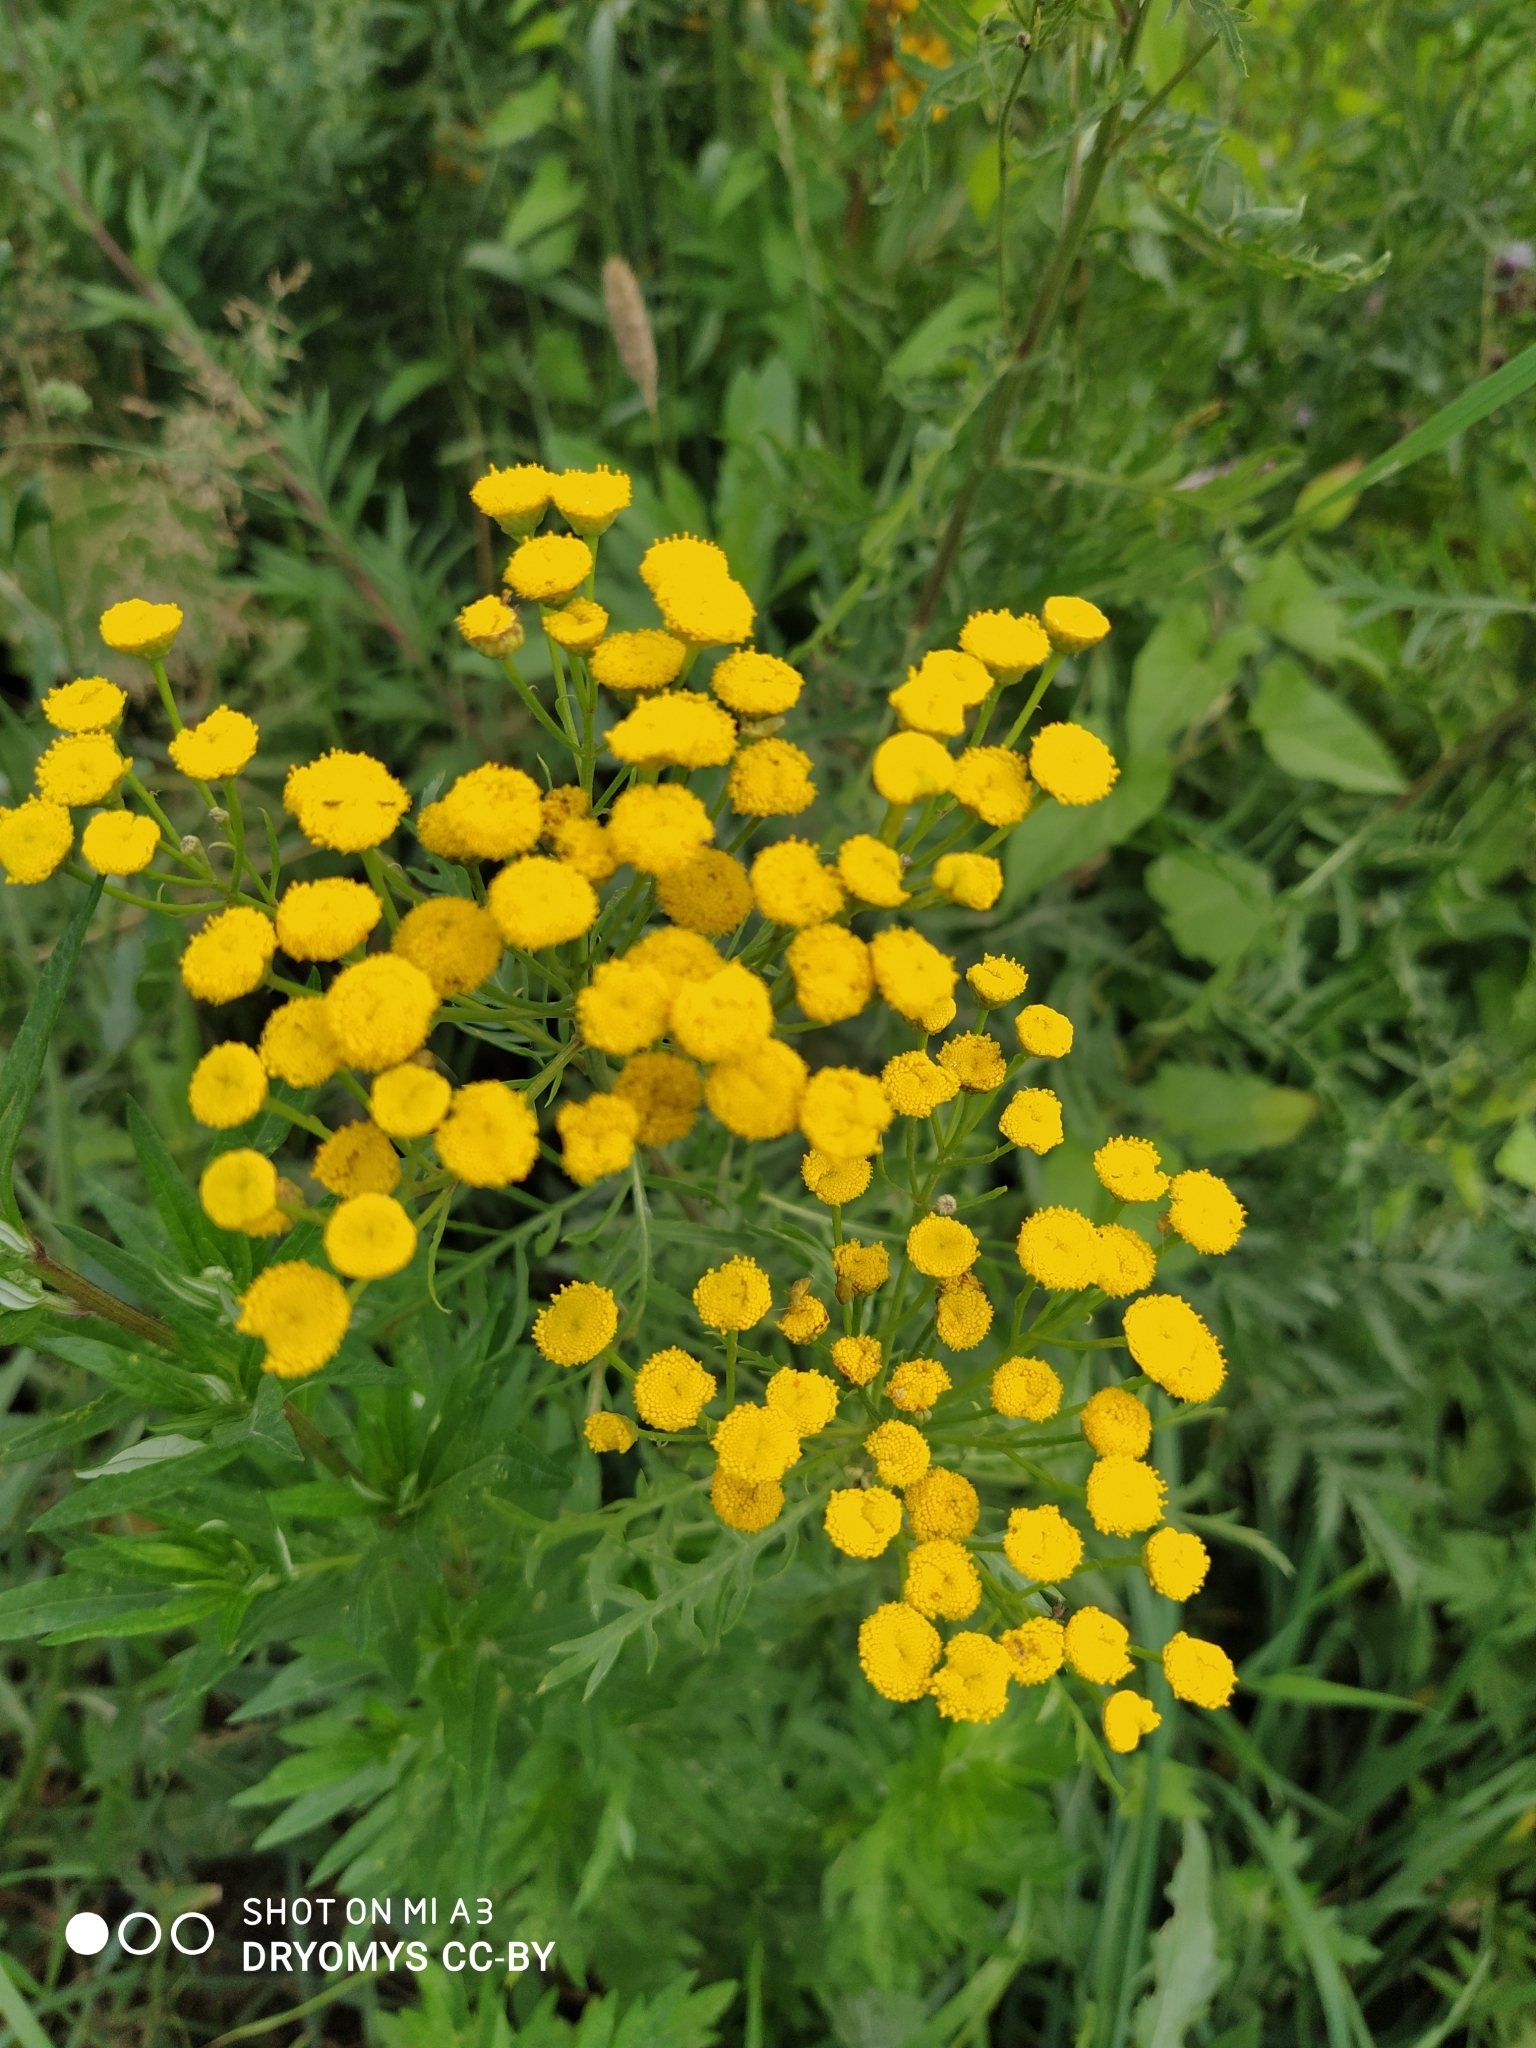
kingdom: Plantae
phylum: Tracheophyta
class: Magnoliopsida
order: Asterales
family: Asteraceae
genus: Tanacetum
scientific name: Tanacetum vulgare
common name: Common tansy
